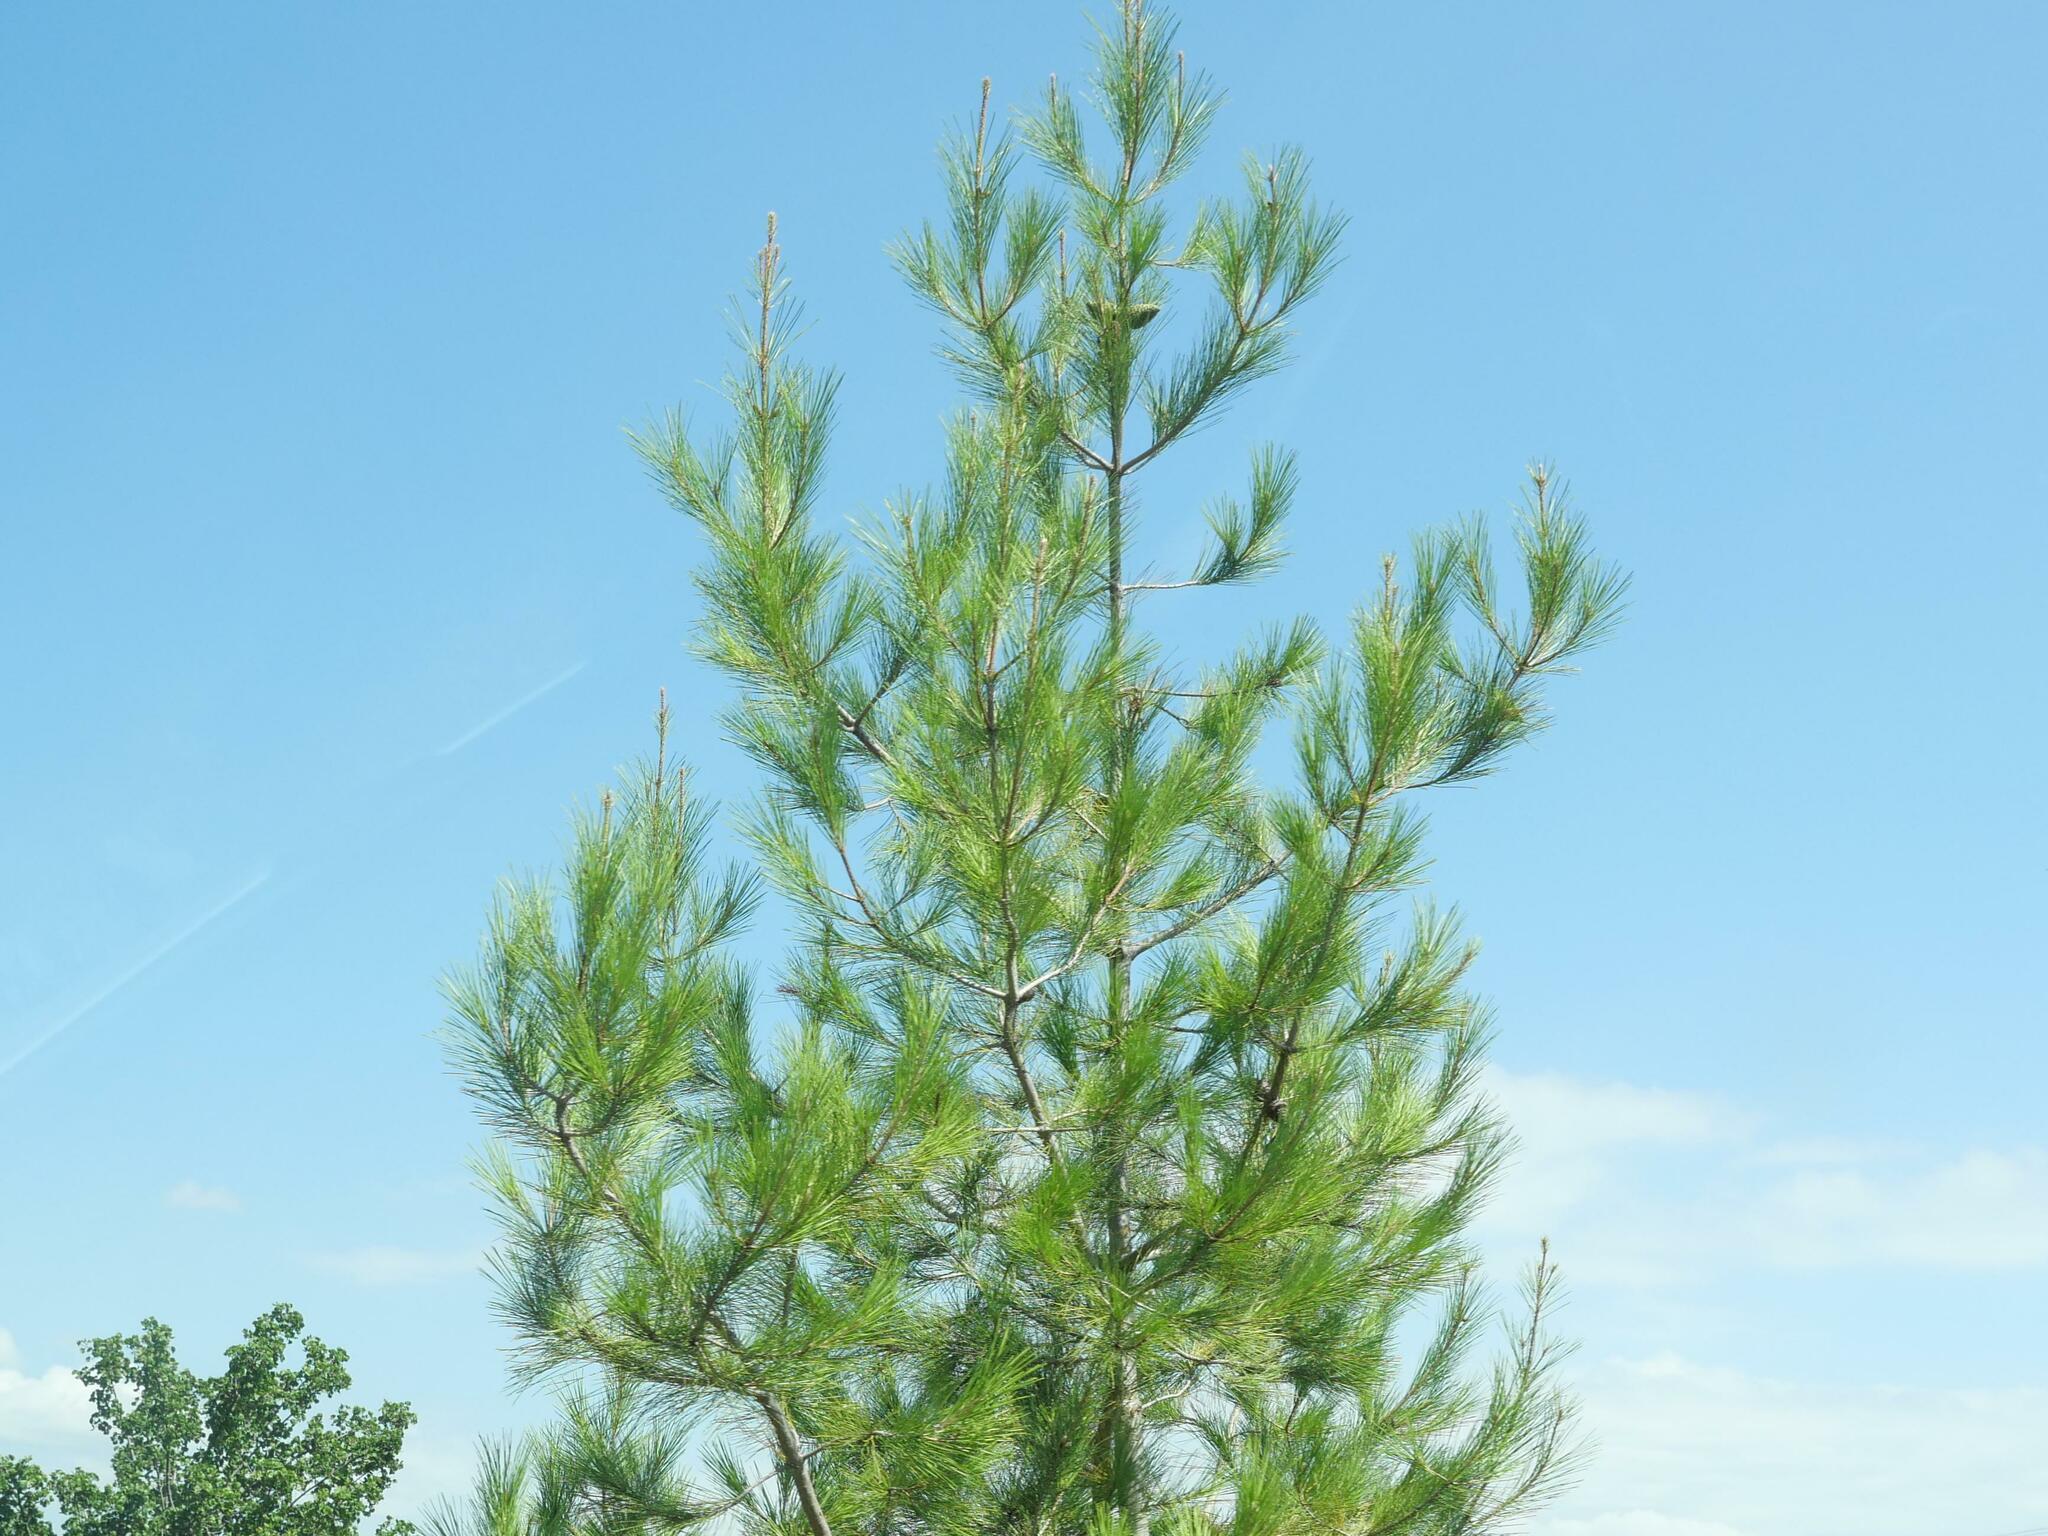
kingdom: Plantae
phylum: Tracheophyta
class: Pinopsida
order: Pinales
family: Pinaceae
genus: Pinus
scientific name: Pinus halepensis
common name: Aleppo pine
